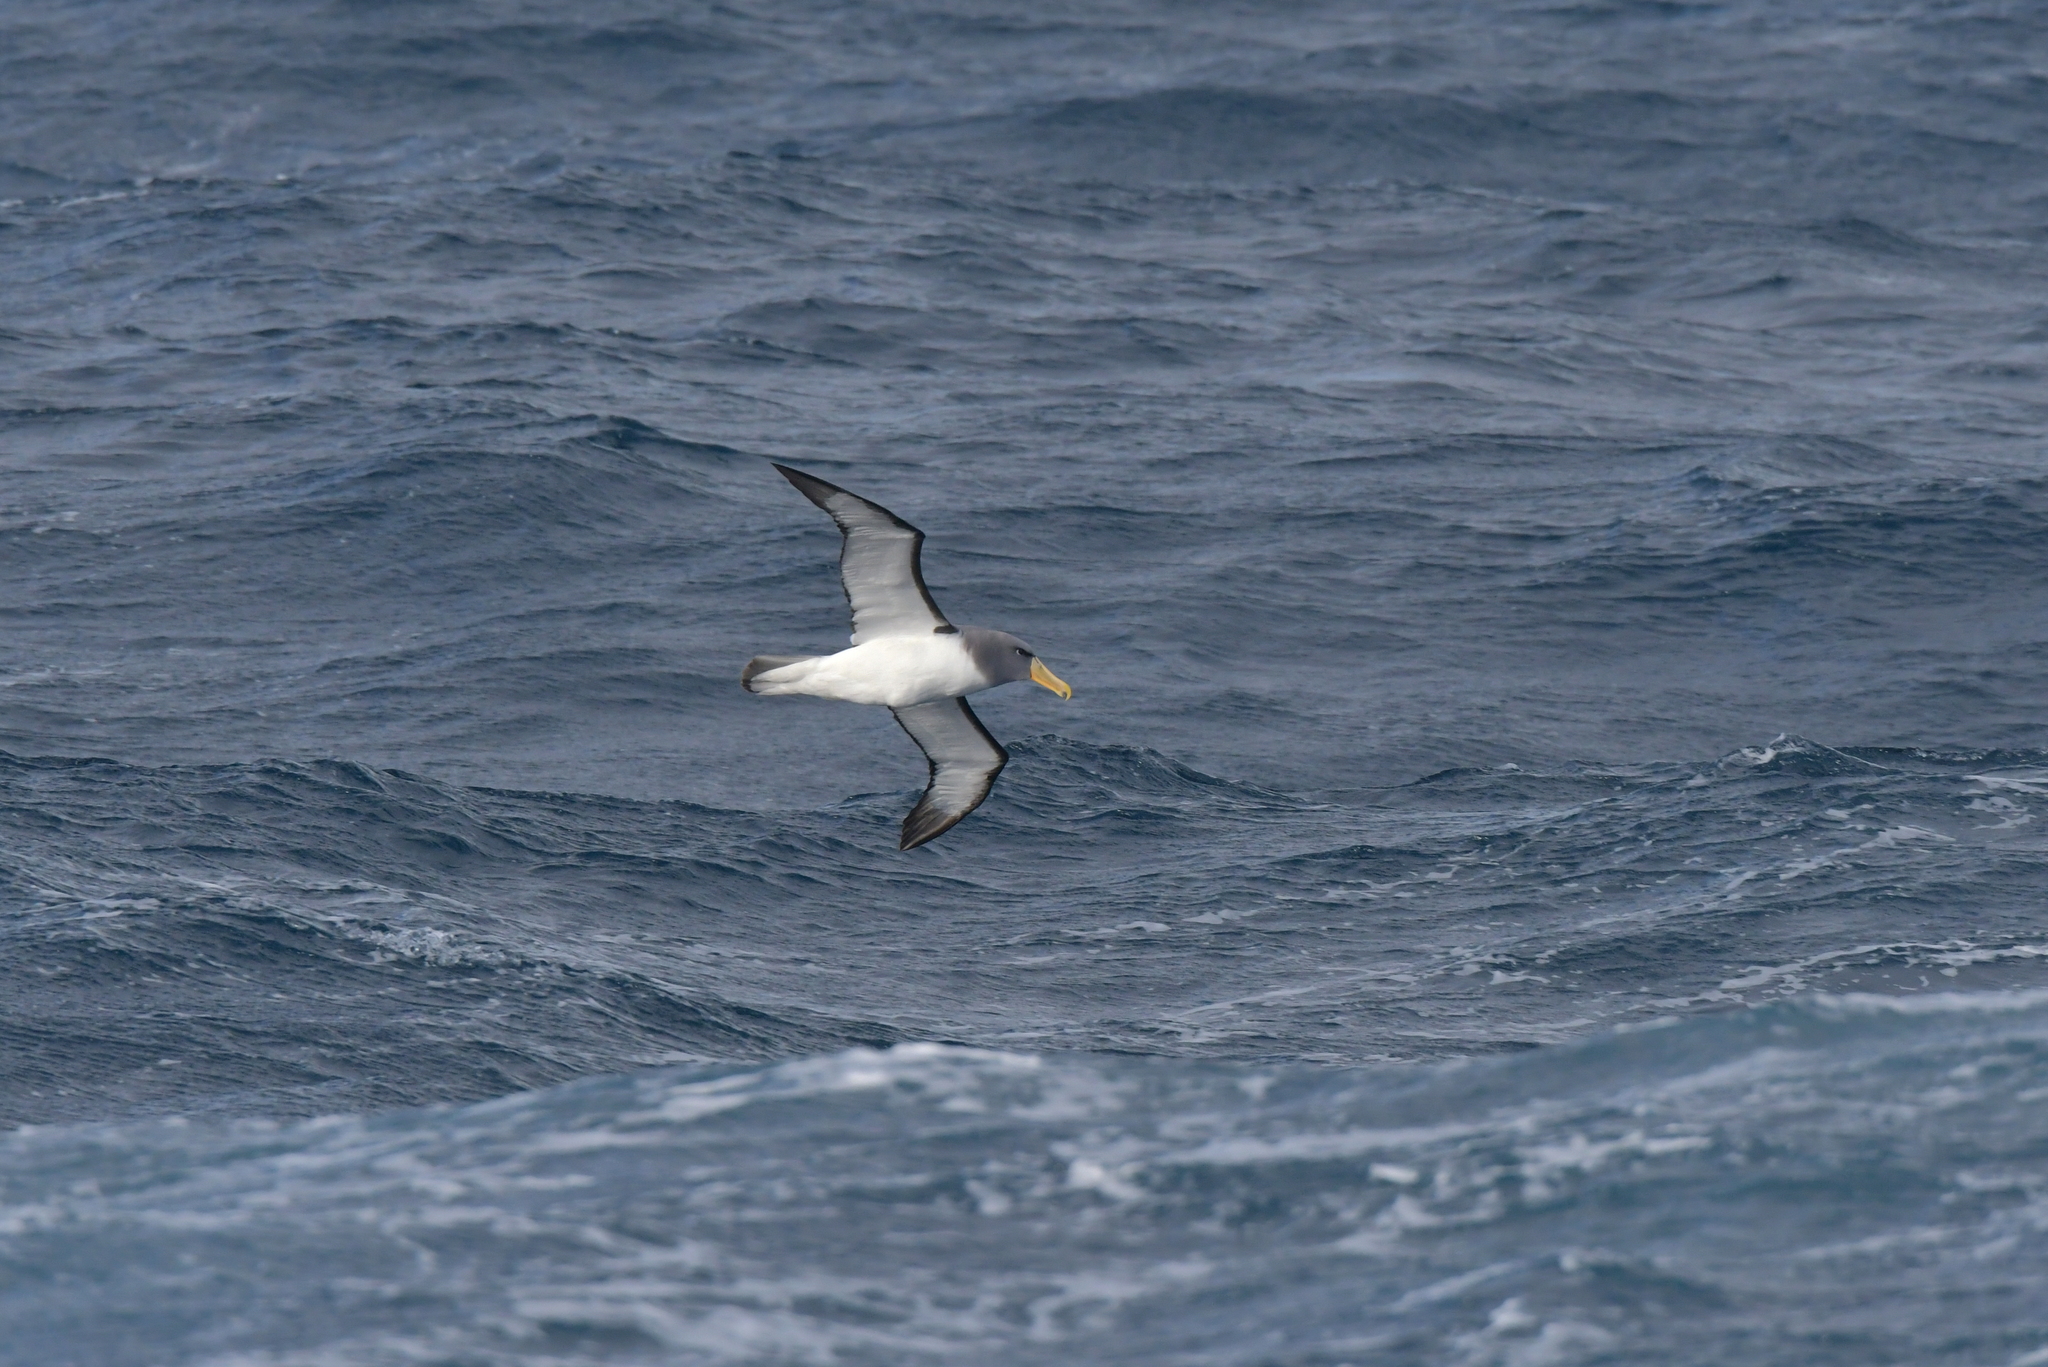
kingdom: Animalia
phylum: Chordata
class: Aves
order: Procellariiformes
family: Diomedeidae
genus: Thalassarche
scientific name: Thalassarche eremita
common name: Chatham albatross
